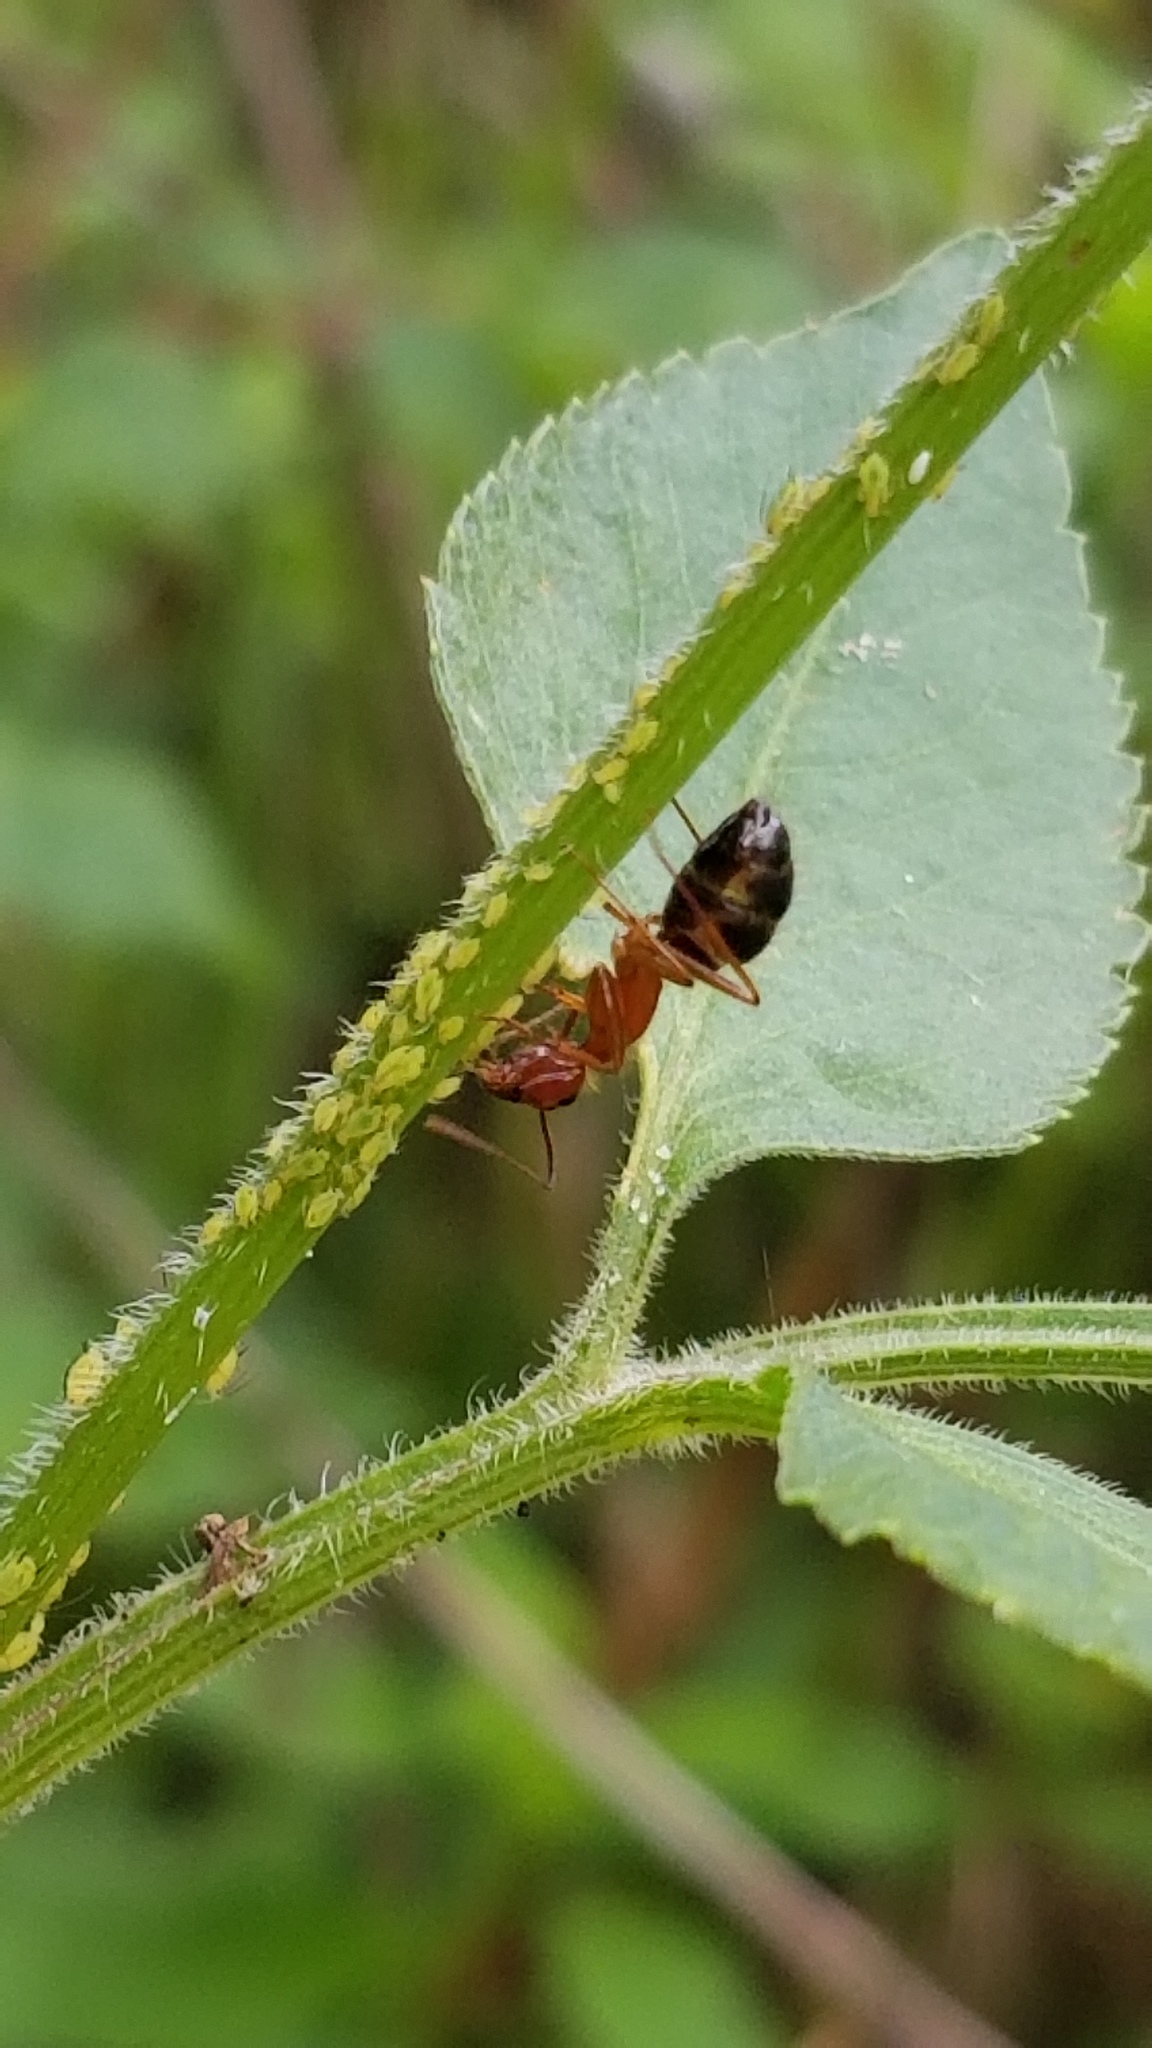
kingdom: Animalia
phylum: Arthropoda
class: Insecta
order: Hymenoptera
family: Formicidae
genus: Camponotus
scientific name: Camponotus floridanus
